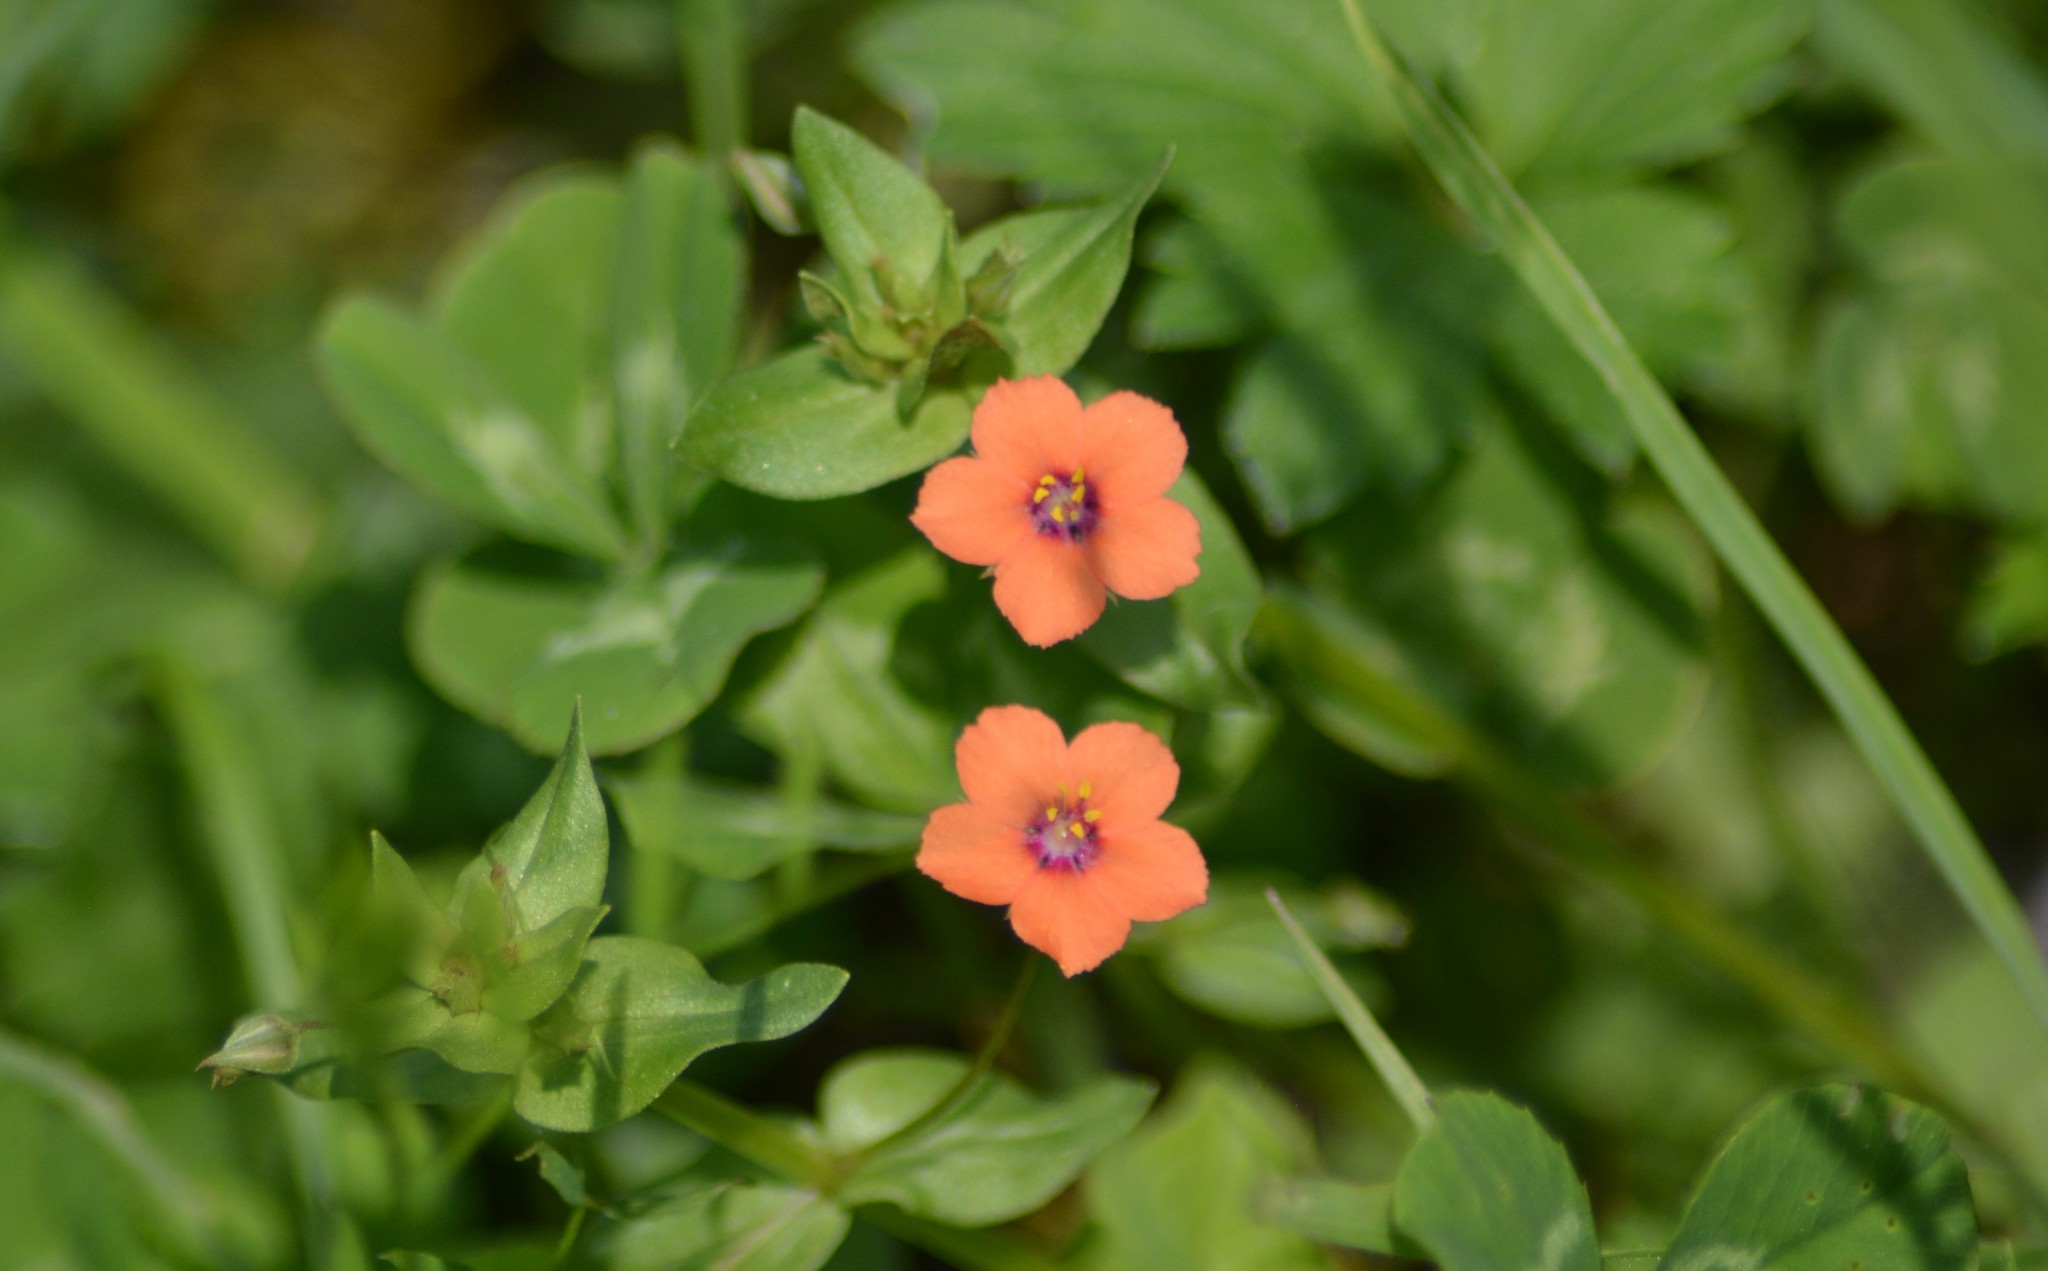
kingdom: Plantae
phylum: Tracheophyta
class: Magnoliopsida
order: Ericales
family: Primulaceae
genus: Lysimachia
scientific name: Lysimachia arvensis
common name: Scarlet pimpernel
